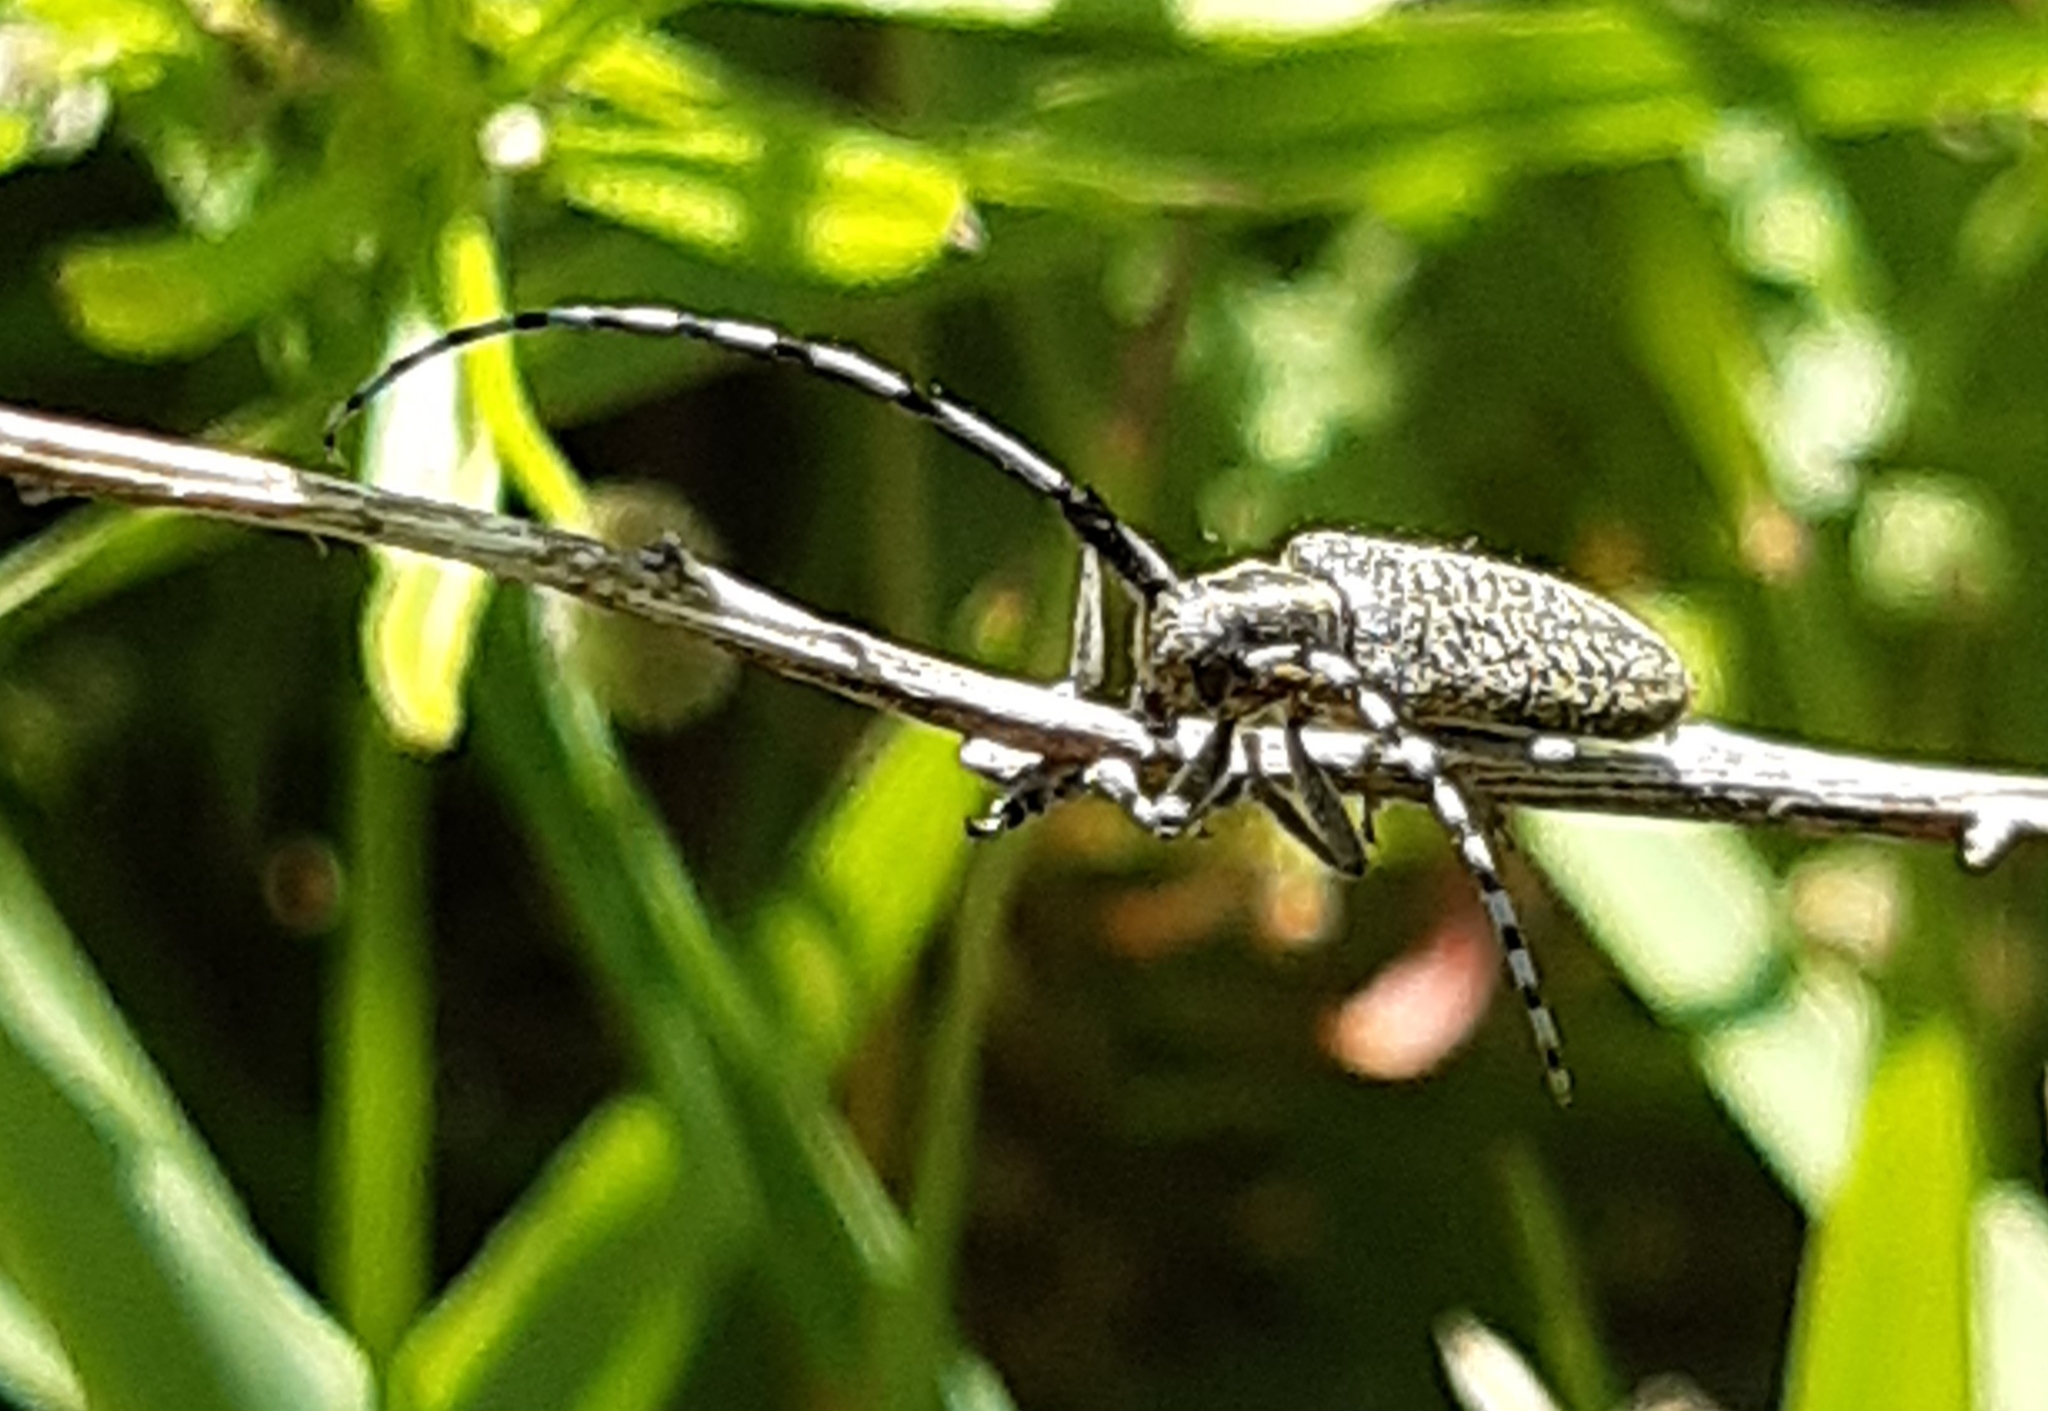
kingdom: Animalia
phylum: Arthropoda
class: Insecta
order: Coleoptera
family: Cerambycidae
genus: Agapanthia
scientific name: Agapanthia villosoviridescens
